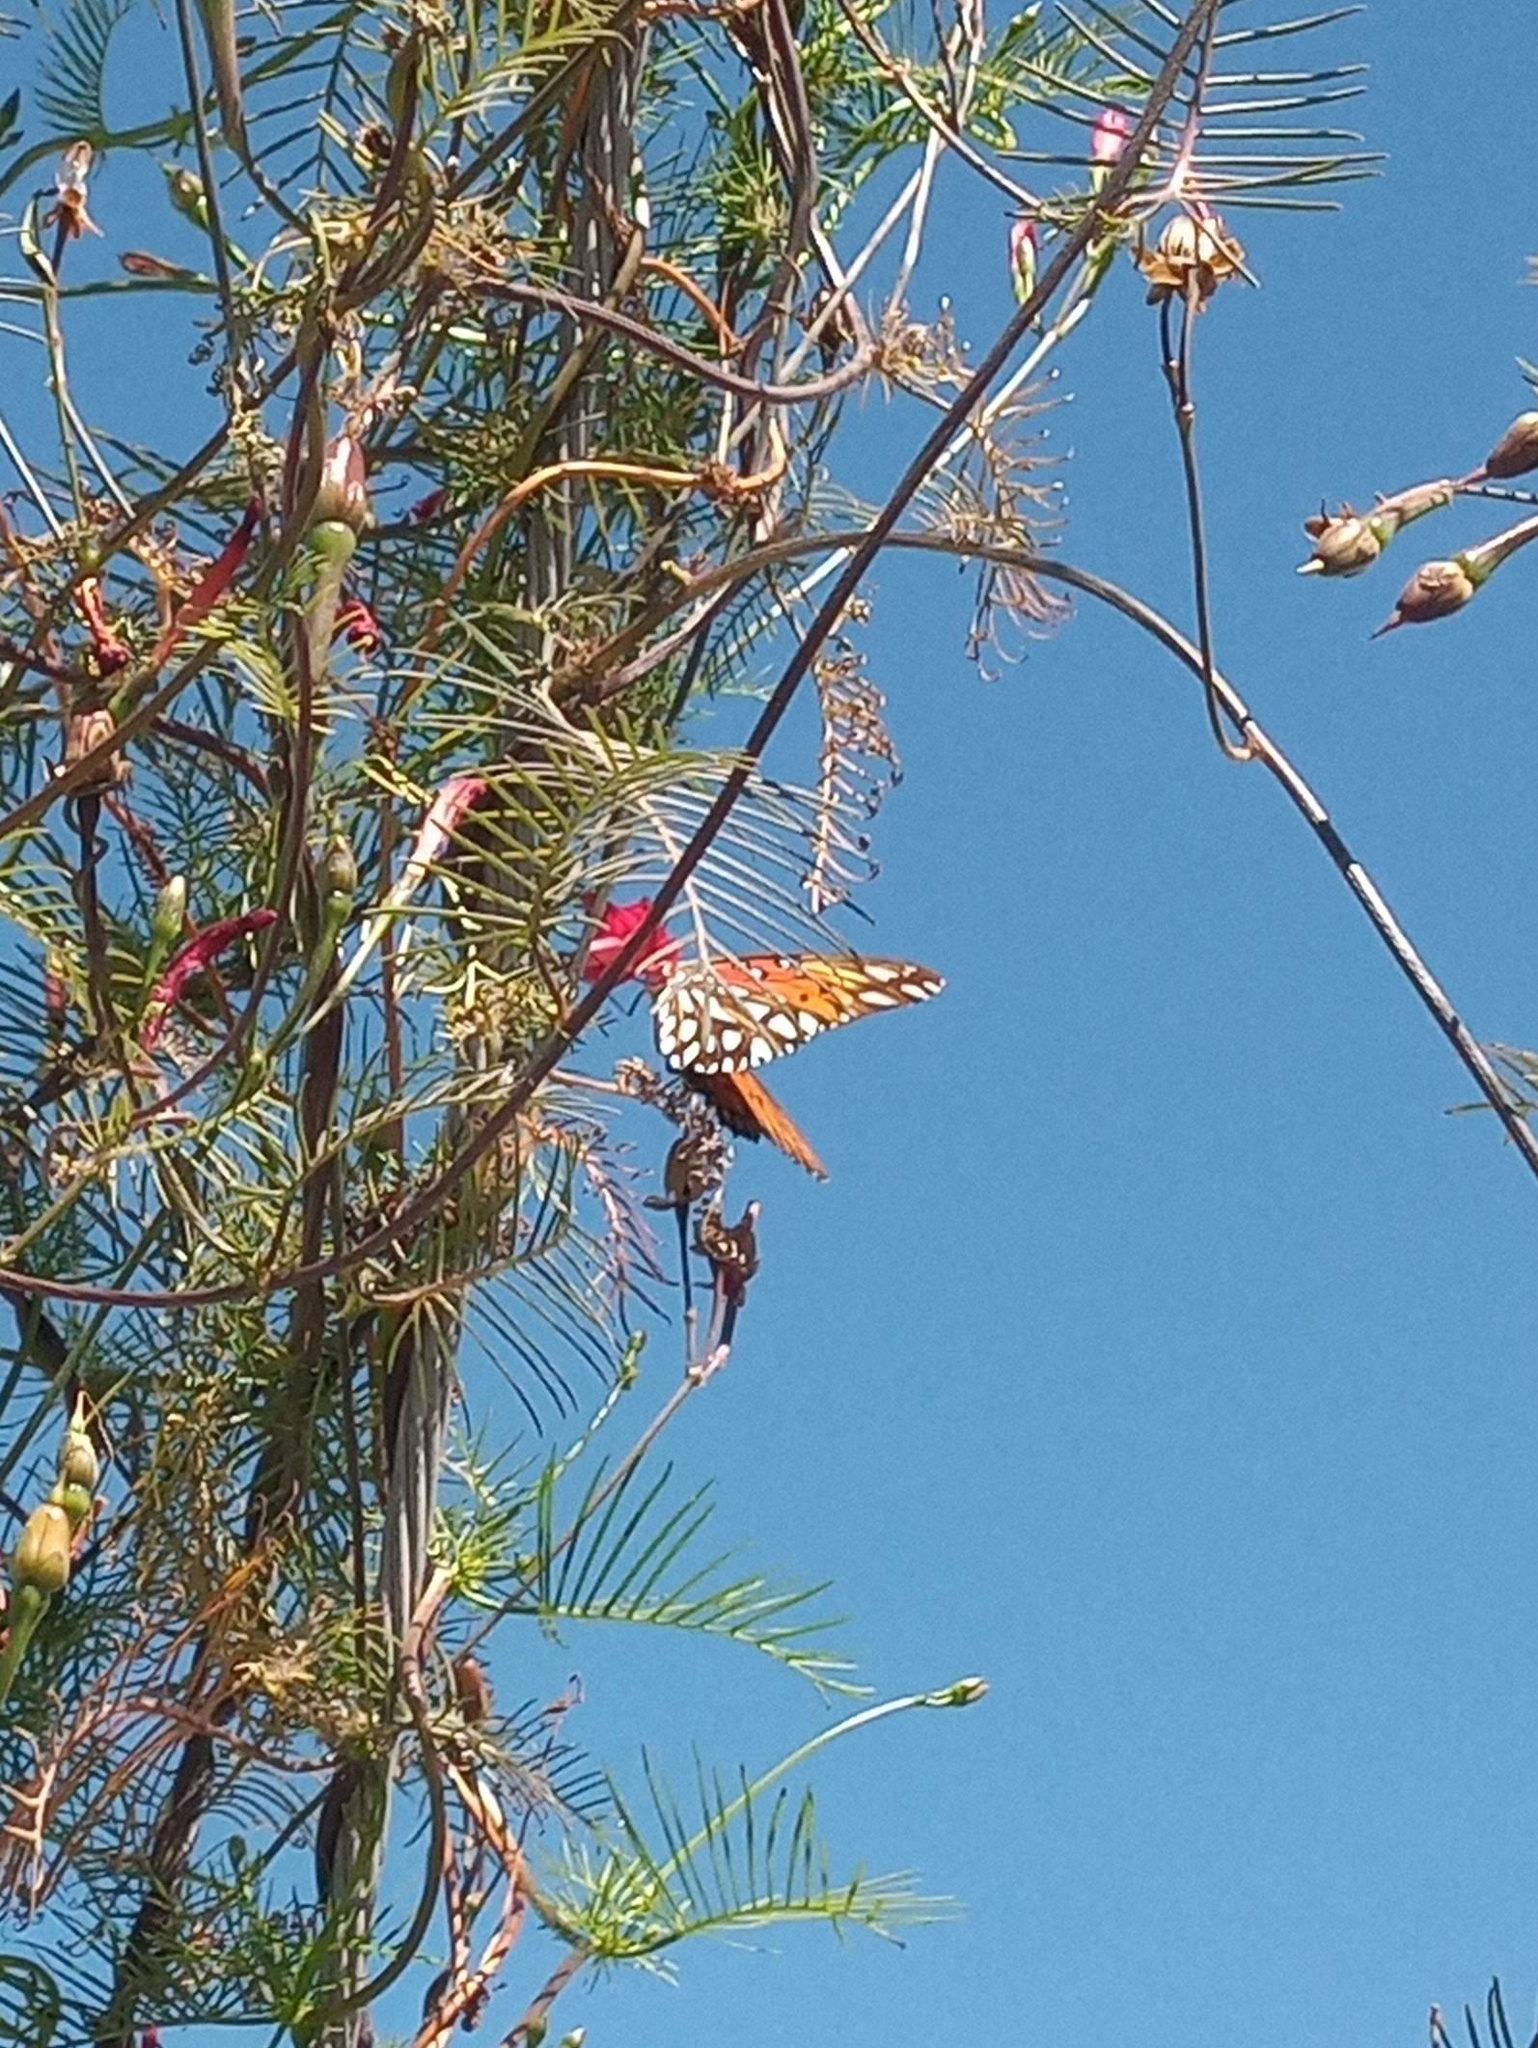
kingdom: Animalia
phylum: Arthropoda
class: Insecta
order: Lepidoptera
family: Nymphalidae
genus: Dione
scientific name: Dione vanillae
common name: Gulf fritillary
